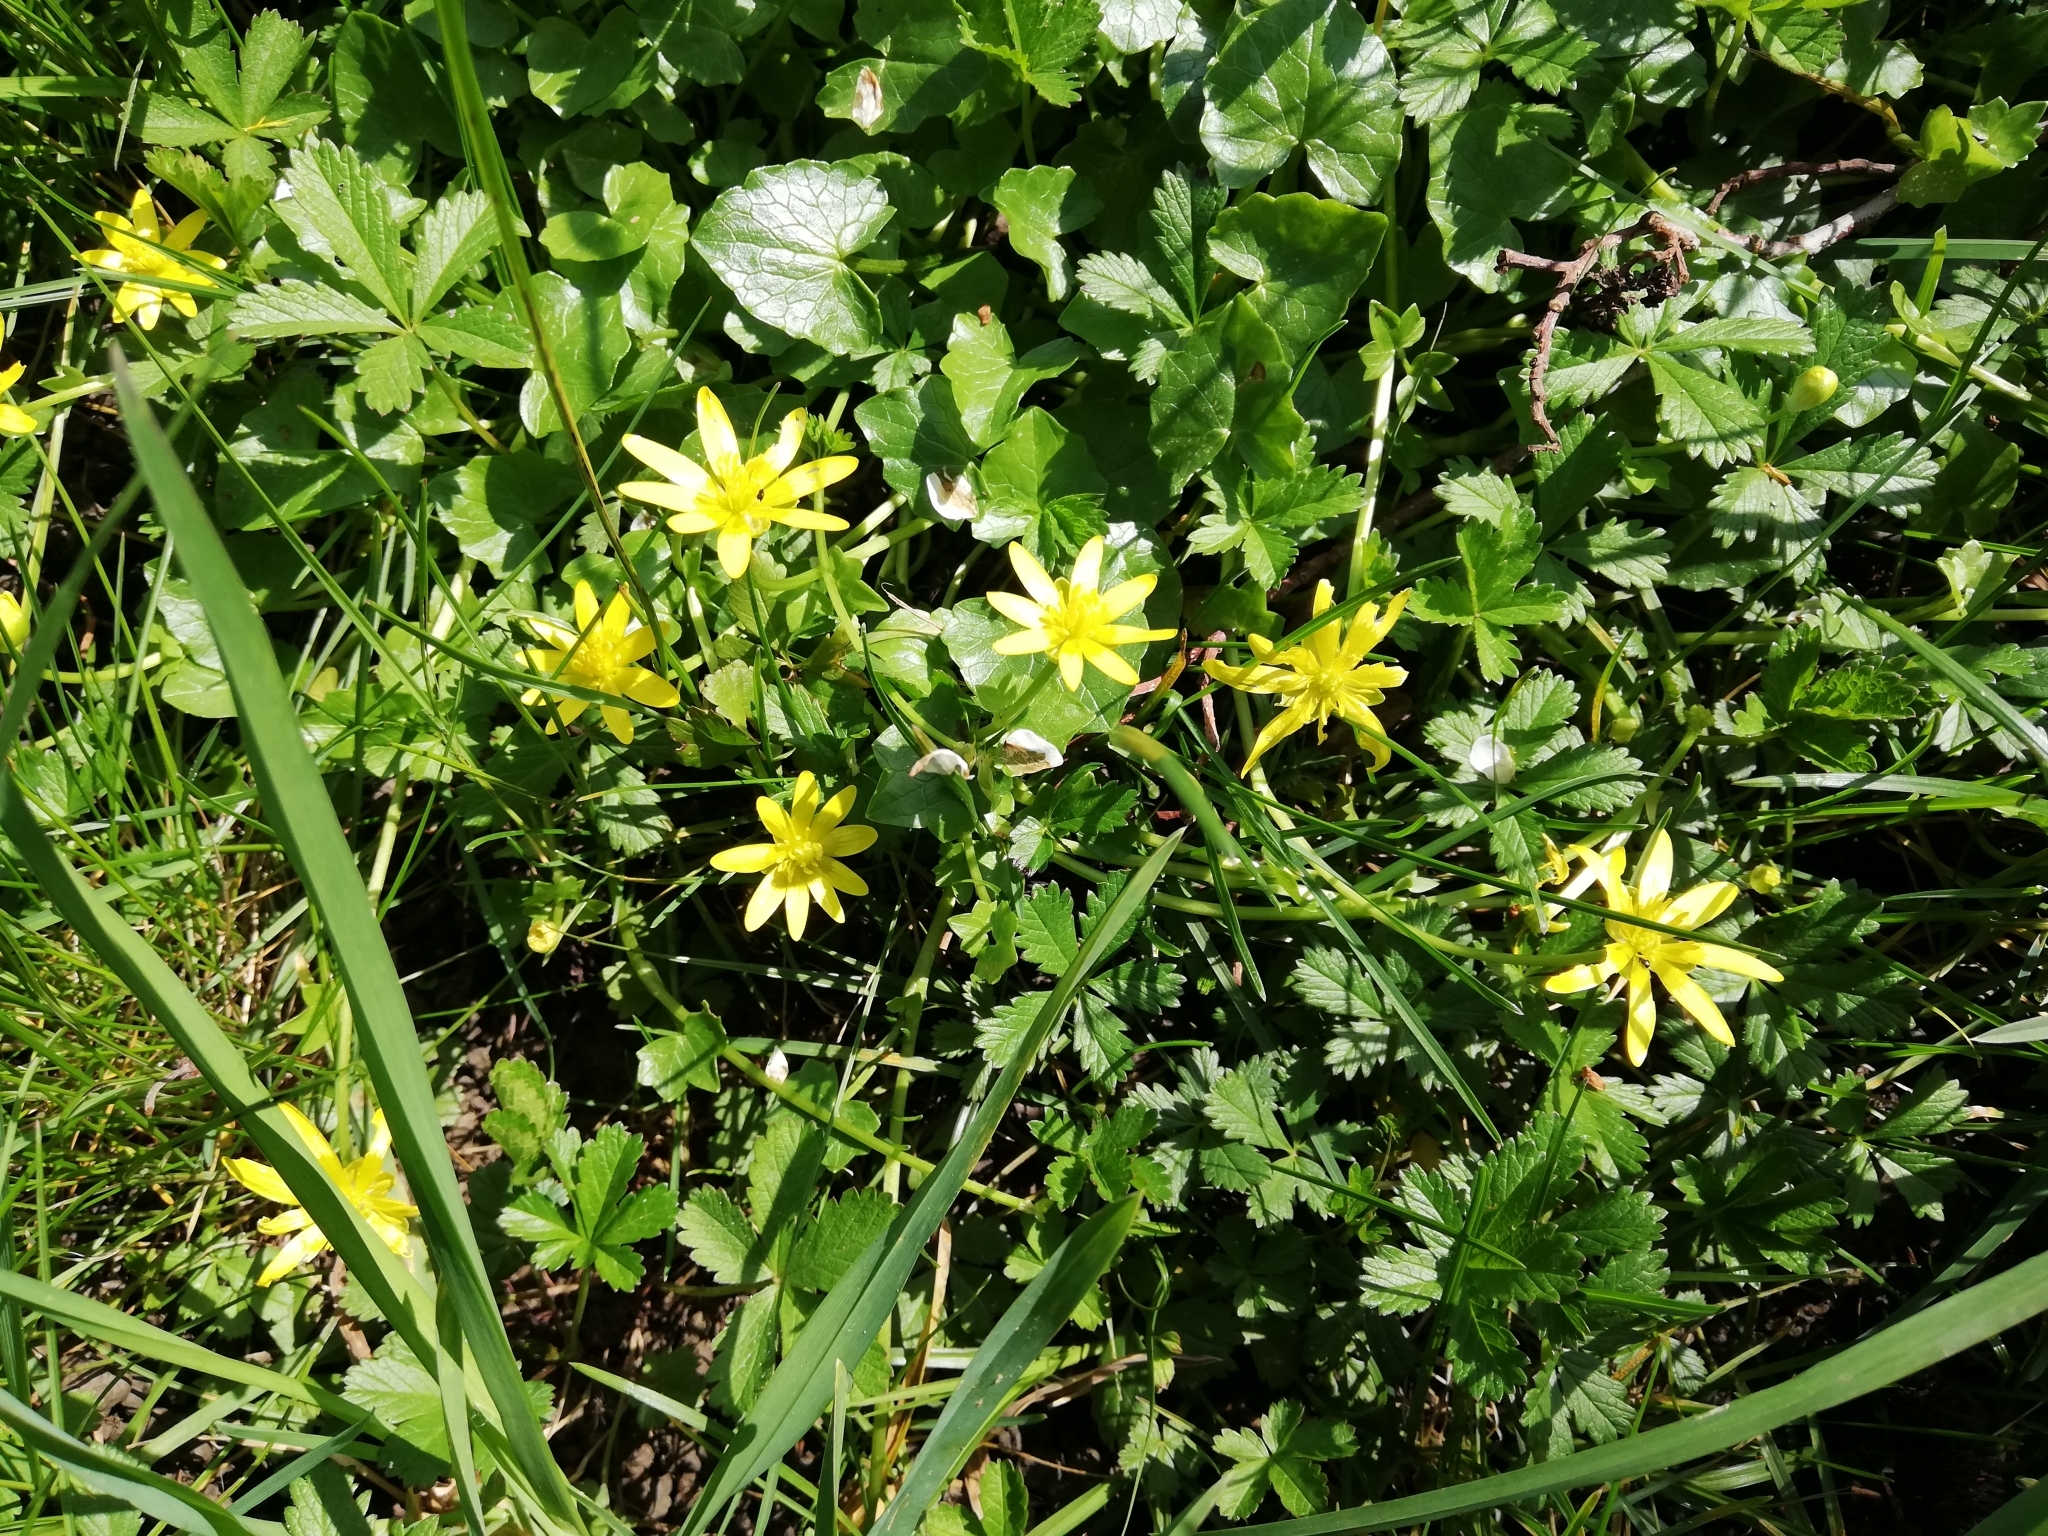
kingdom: Plantae
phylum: Tracheophyta
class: Magnoliopsida
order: Ranunculales
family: Ranunculaceae
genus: Ficaria
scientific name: Ficaria verna
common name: Lesser celandine
